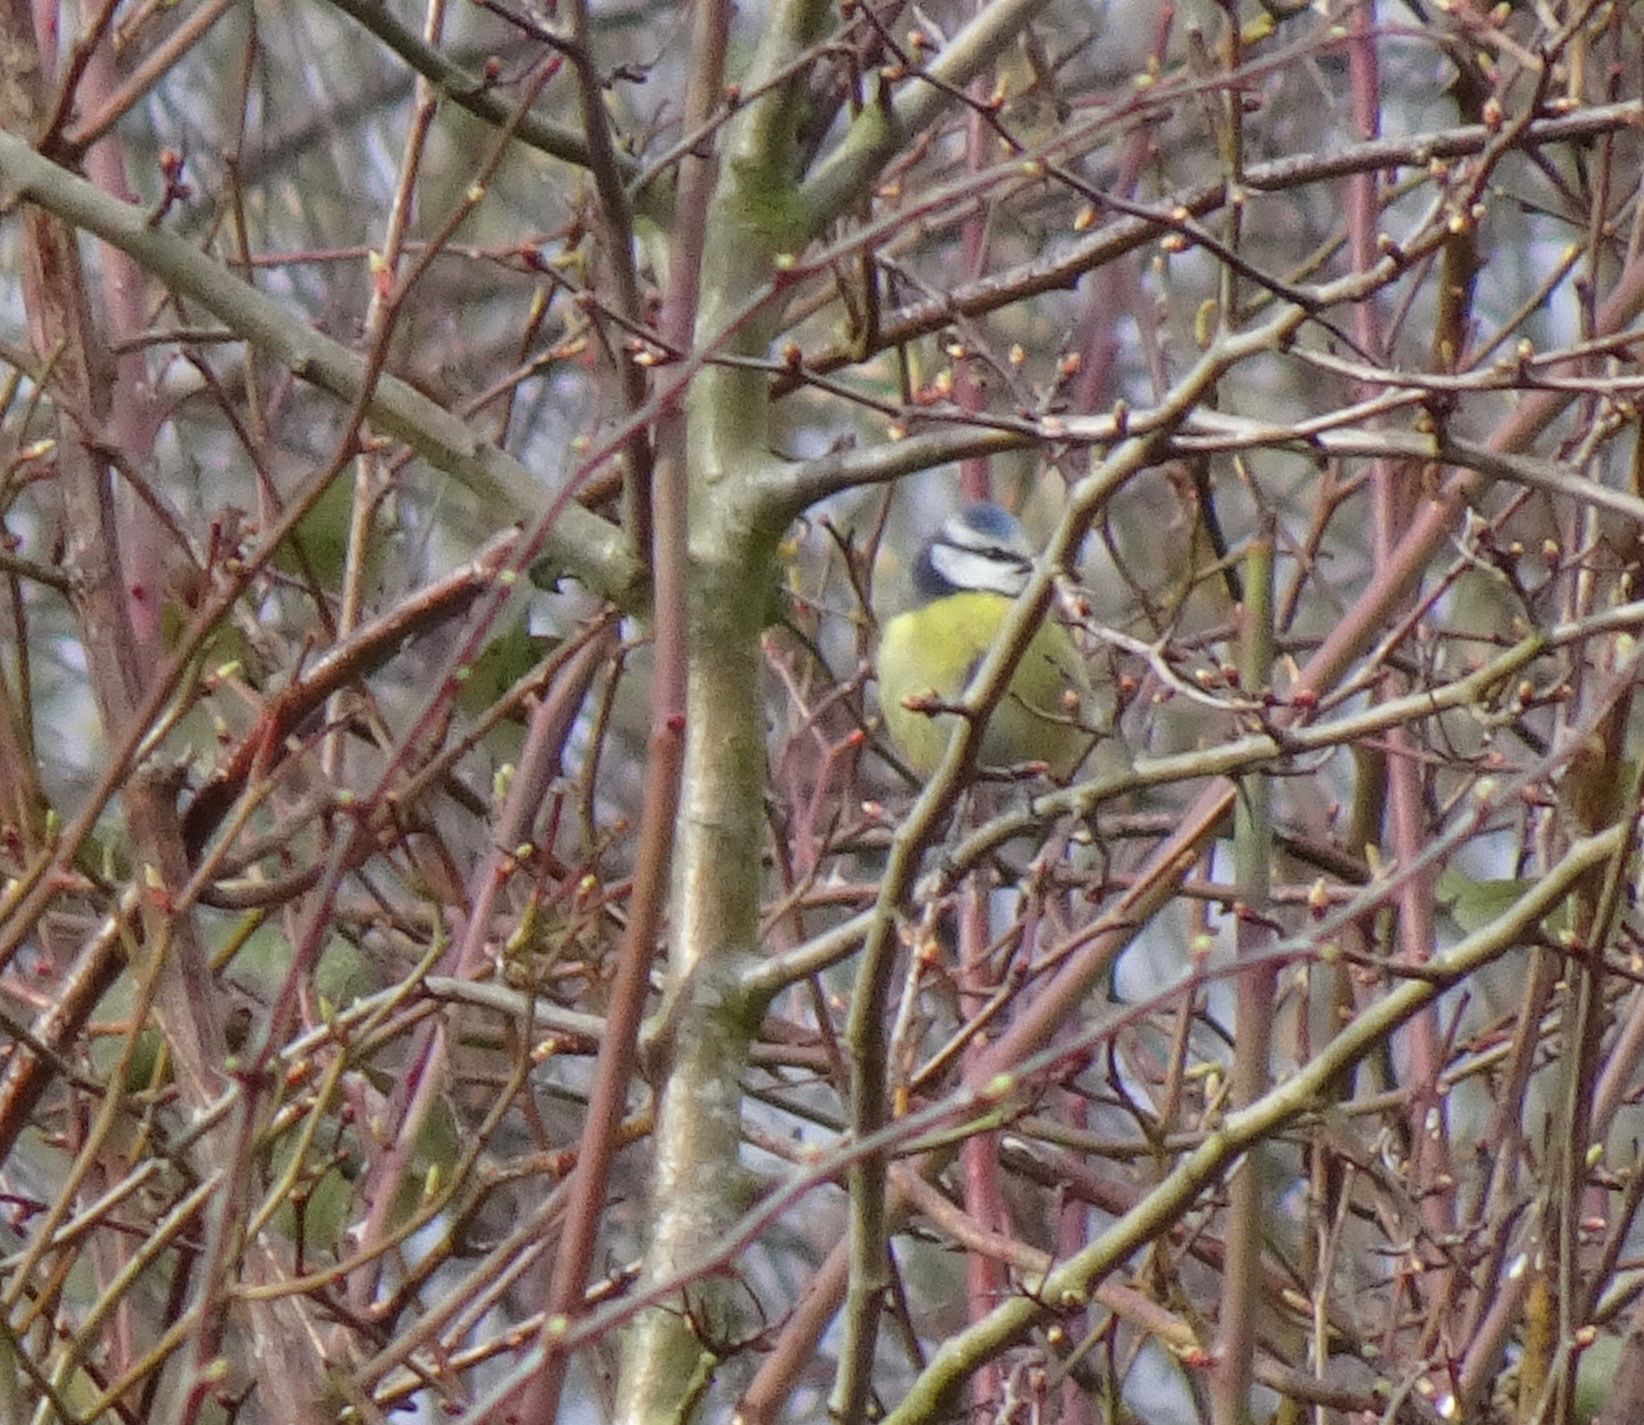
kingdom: Animalia
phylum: Chordata
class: Aves
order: Passeriformes
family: Paridae
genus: Cyanistes
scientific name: Cyanistes caeruleus
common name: Eurasian blue tit
